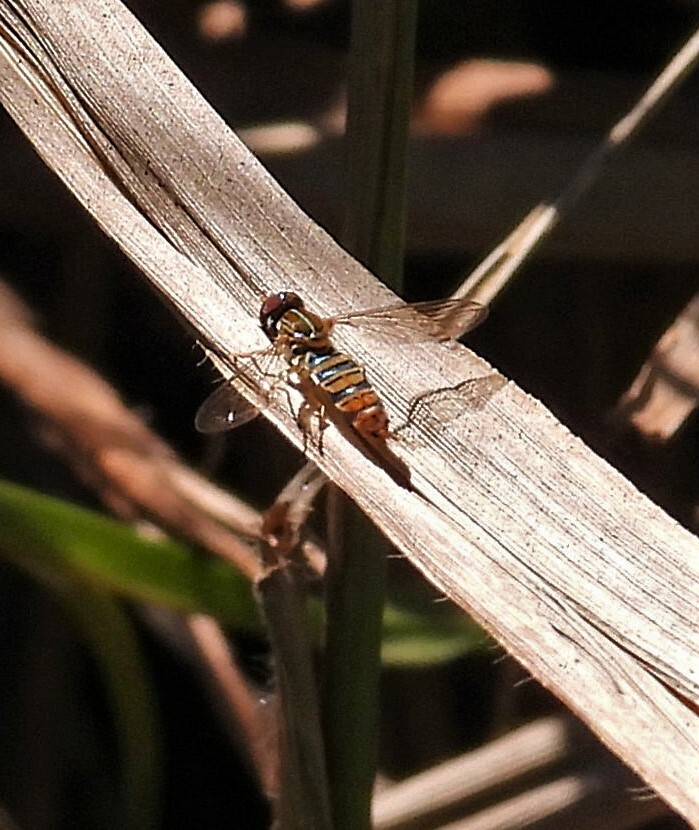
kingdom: Animalia
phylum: Arthropoda
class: Insecta
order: Diptera
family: Syrphidae
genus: Toxomerus
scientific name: Toxomerus politus
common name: Maize calligrapher
